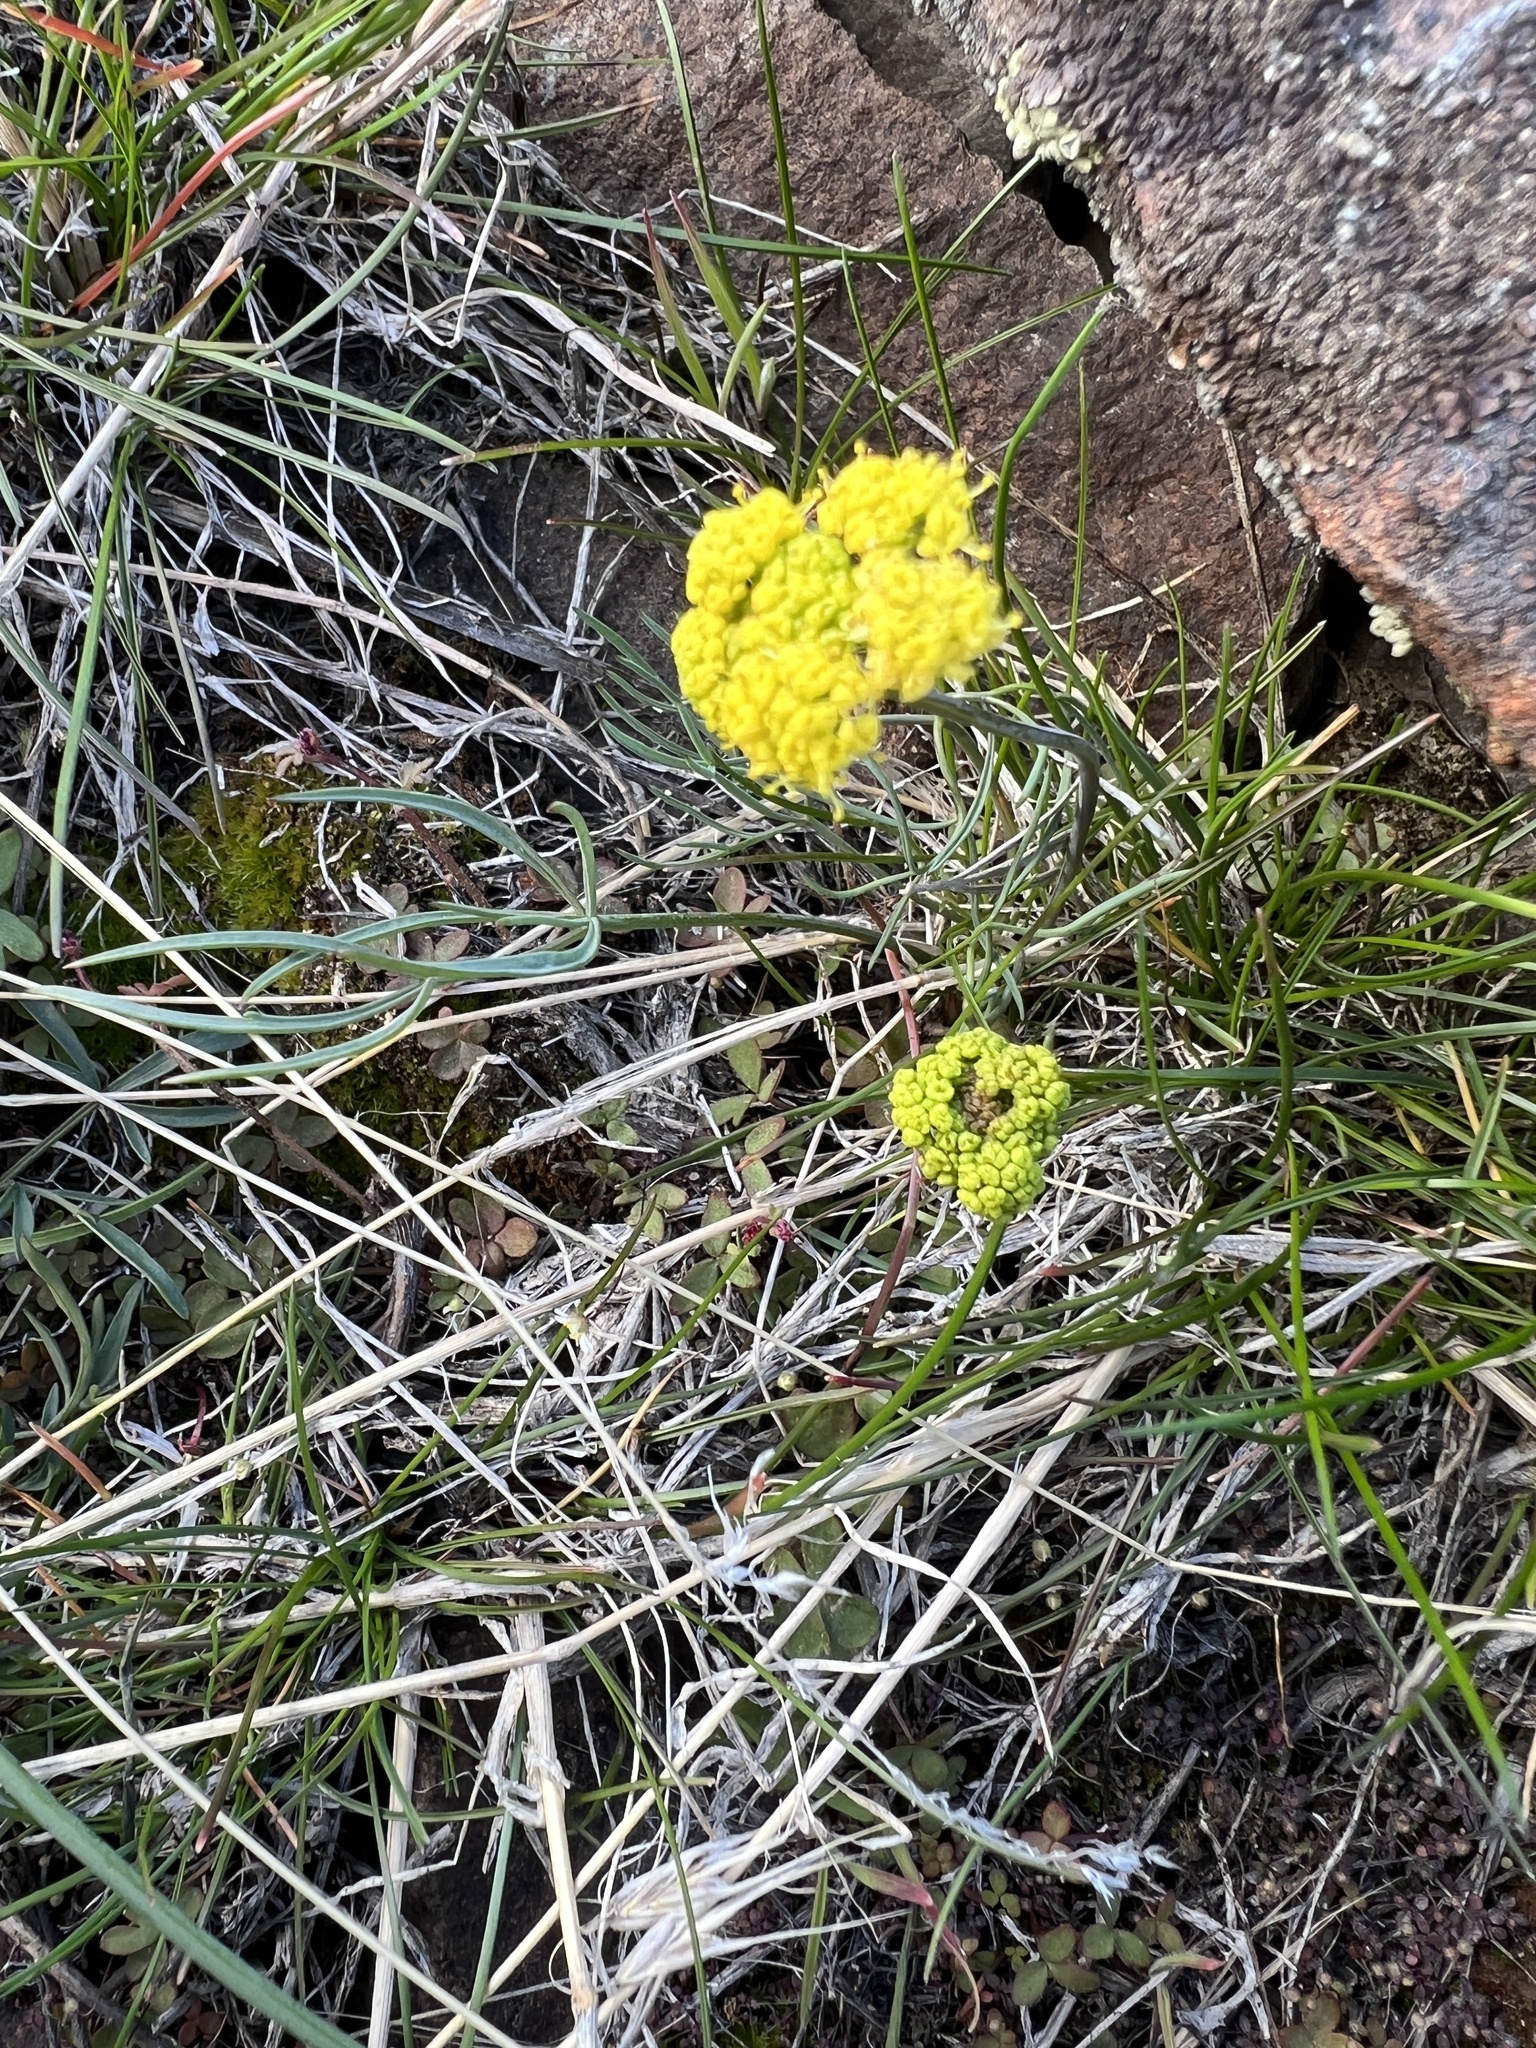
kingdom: Plantae
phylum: Tracheophyta
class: Magnoliopsida
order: Apiales
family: Apiaceae
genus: Lomatium
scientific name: Lomatium triternatum
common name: Ternate lomatium
